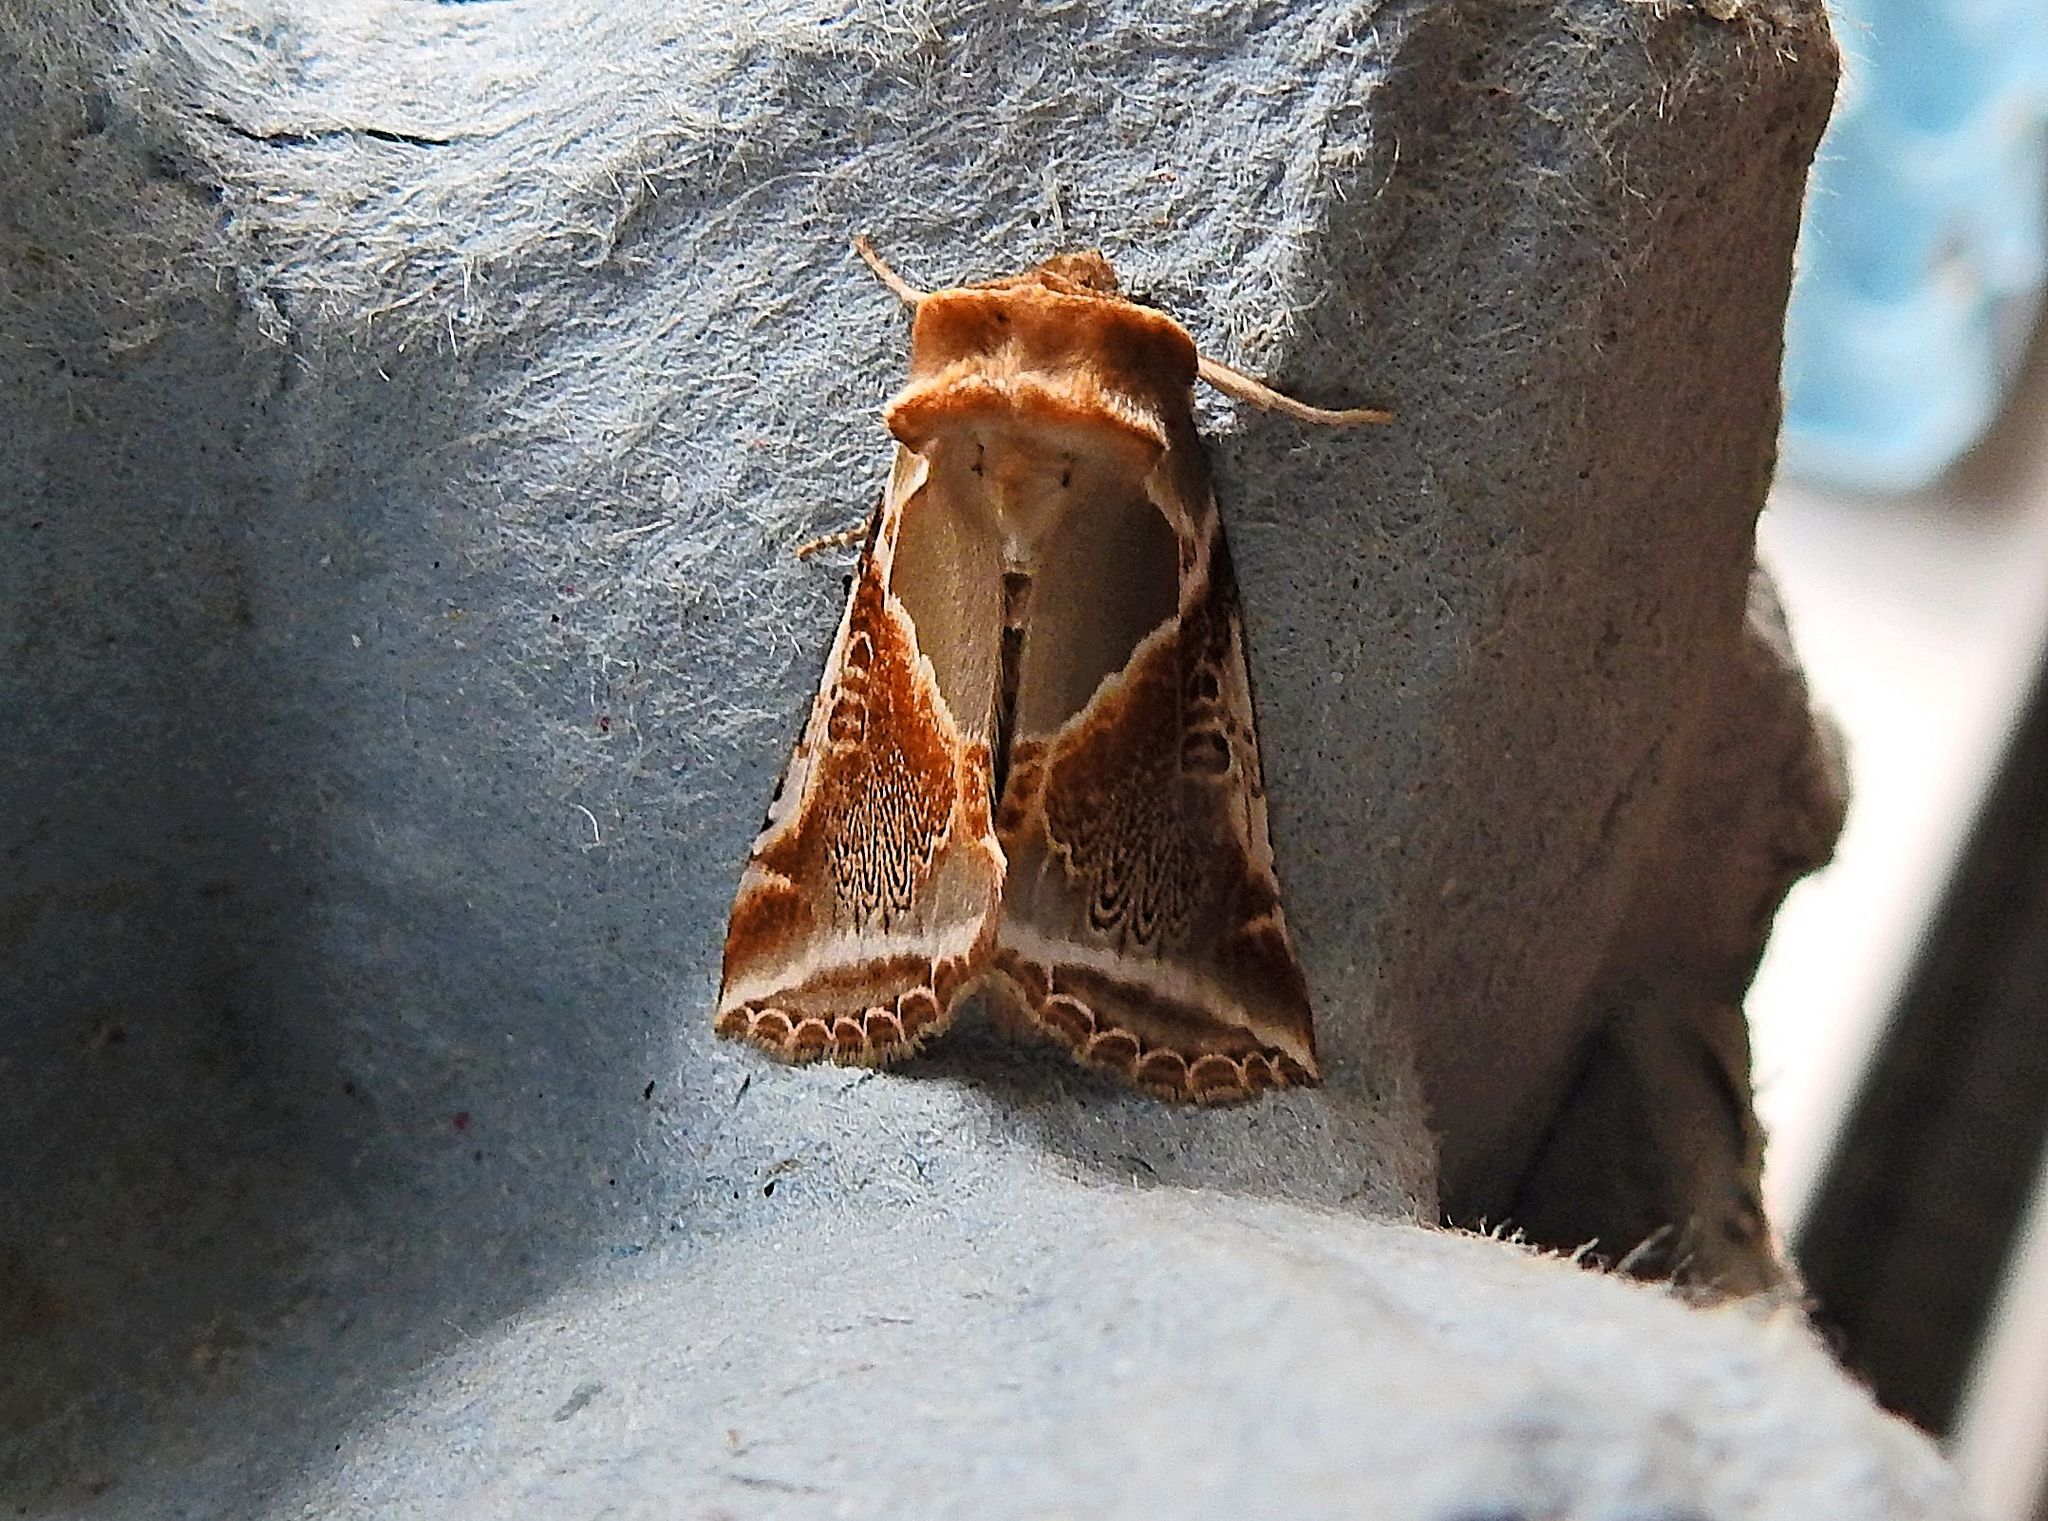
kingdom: Animalia
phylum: Arthropoda
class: Insecta
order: Lepidoptera
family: Drepanidae
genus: Habrosyne
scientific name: Habrosyne pyritoides
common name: Buff arches
